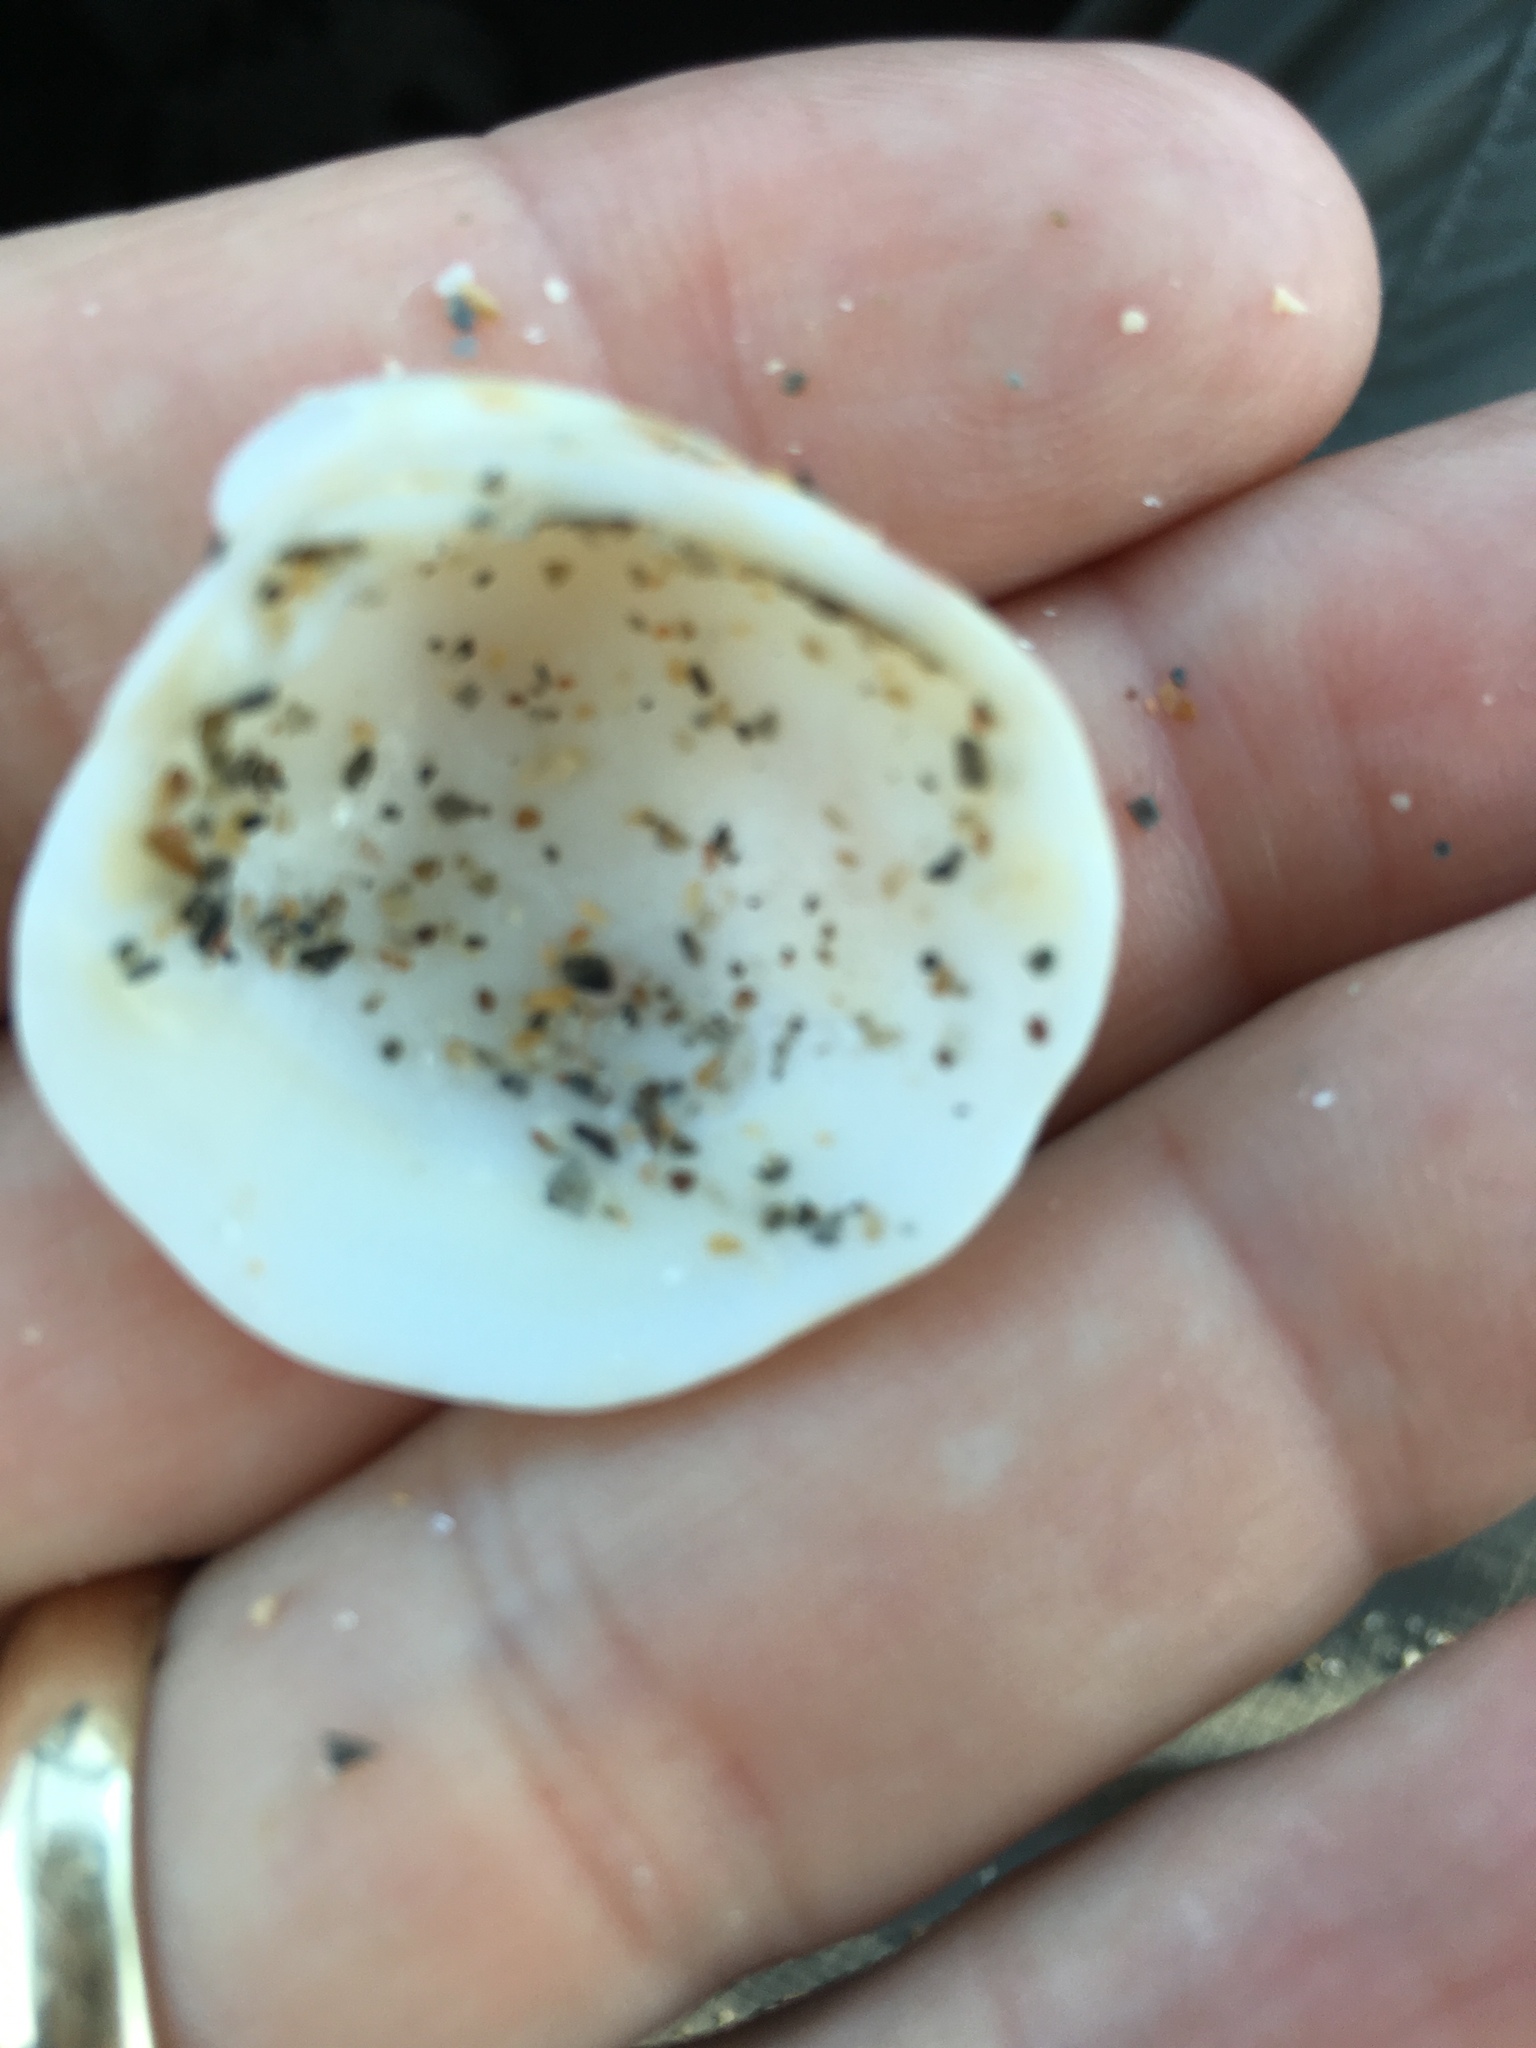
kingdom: Animalia
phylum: Mollusca
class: Bivalvia
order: Venerida
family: Veneridae
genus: Chionopsis
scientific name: Chionopsis intapurpurea
